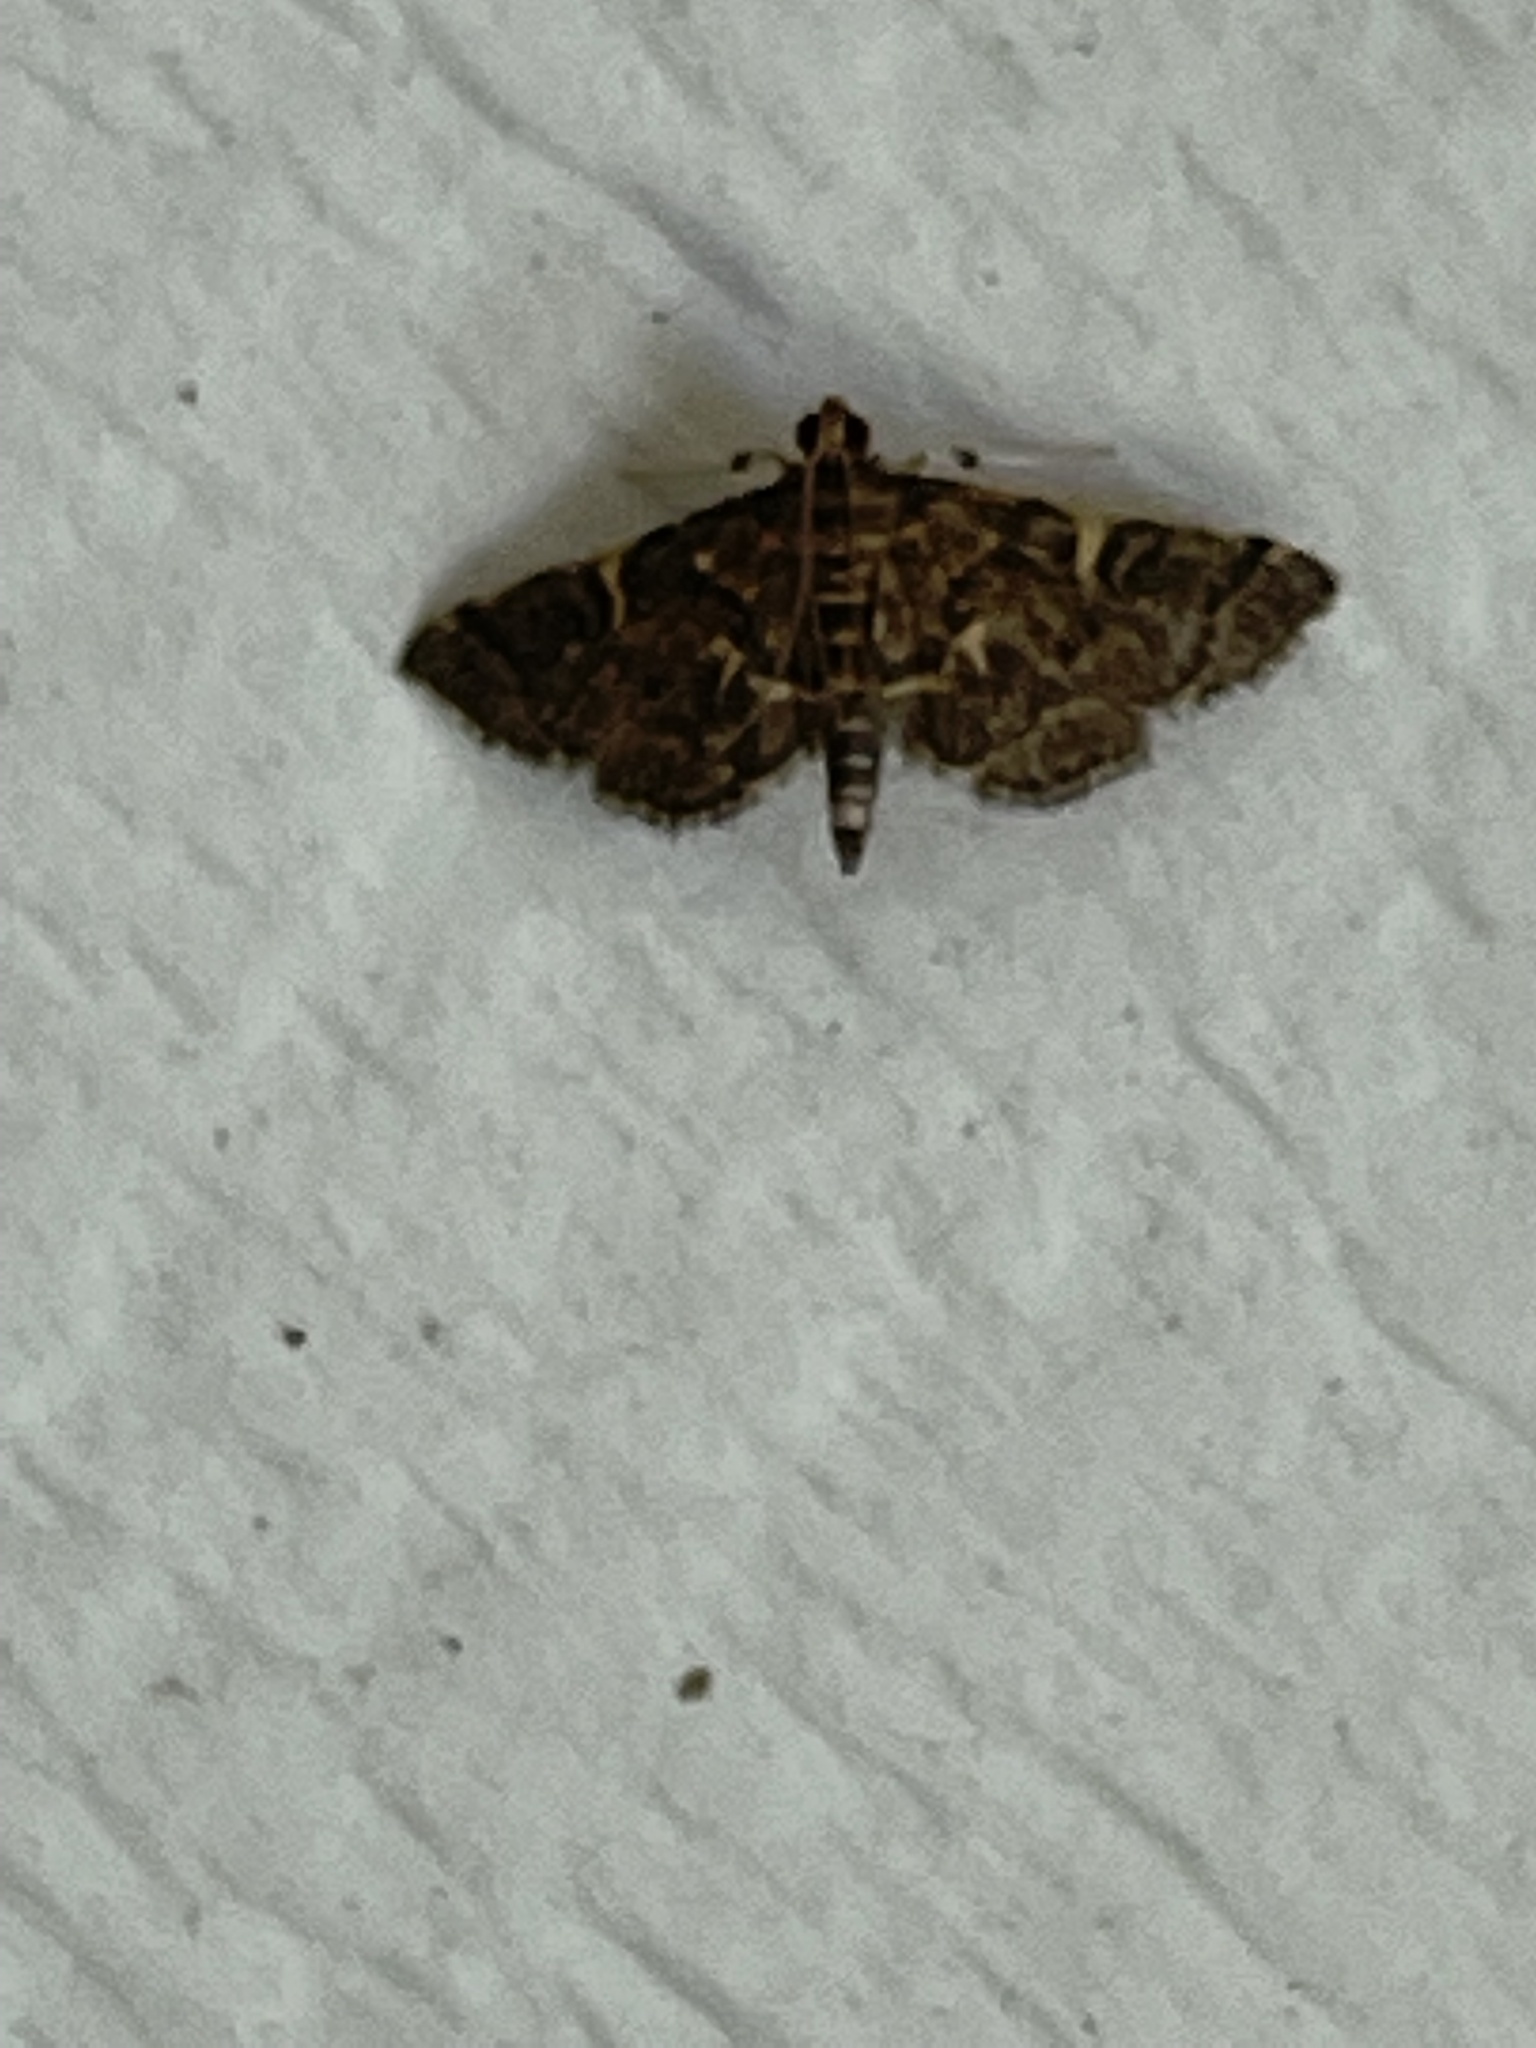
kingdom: Animalia
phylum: Arthropoda
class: Insecta
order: Lepidoptera
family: Crambidae
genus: Anageshna
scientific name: Anageshna primordialis
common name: Yellow-spotted webworm moth
